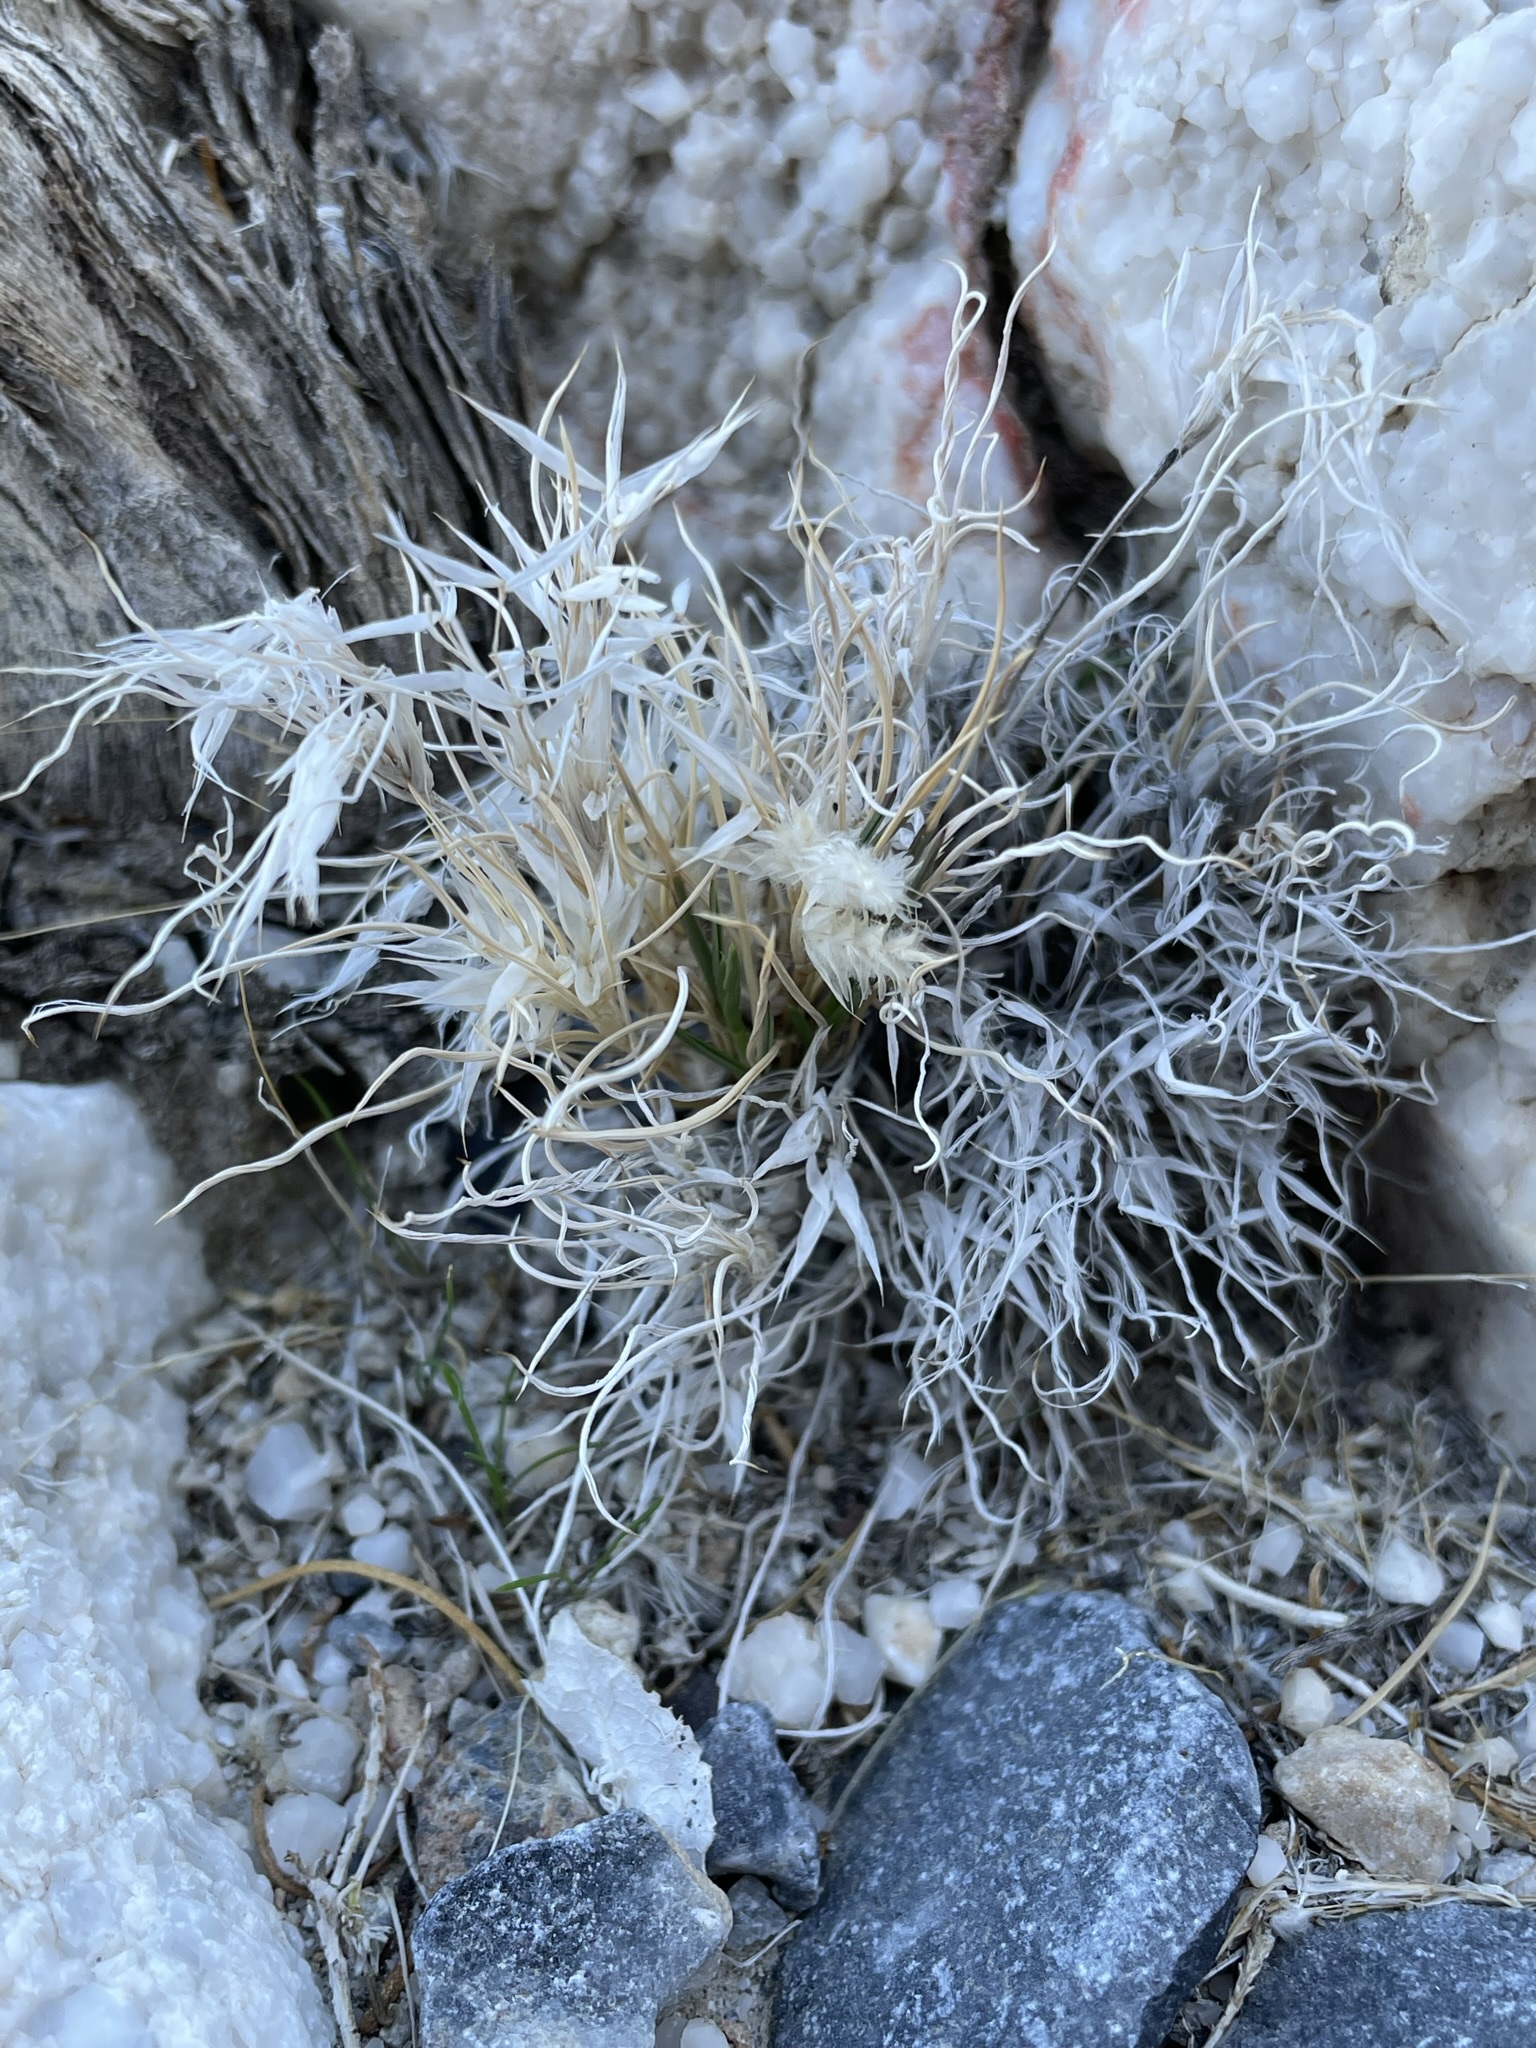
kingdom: Plantae
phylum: Tracheophyta
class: Liliopsida
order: Poales
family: Poaceae
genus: Dasyochloa
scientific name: Dasyochloa pulchella
